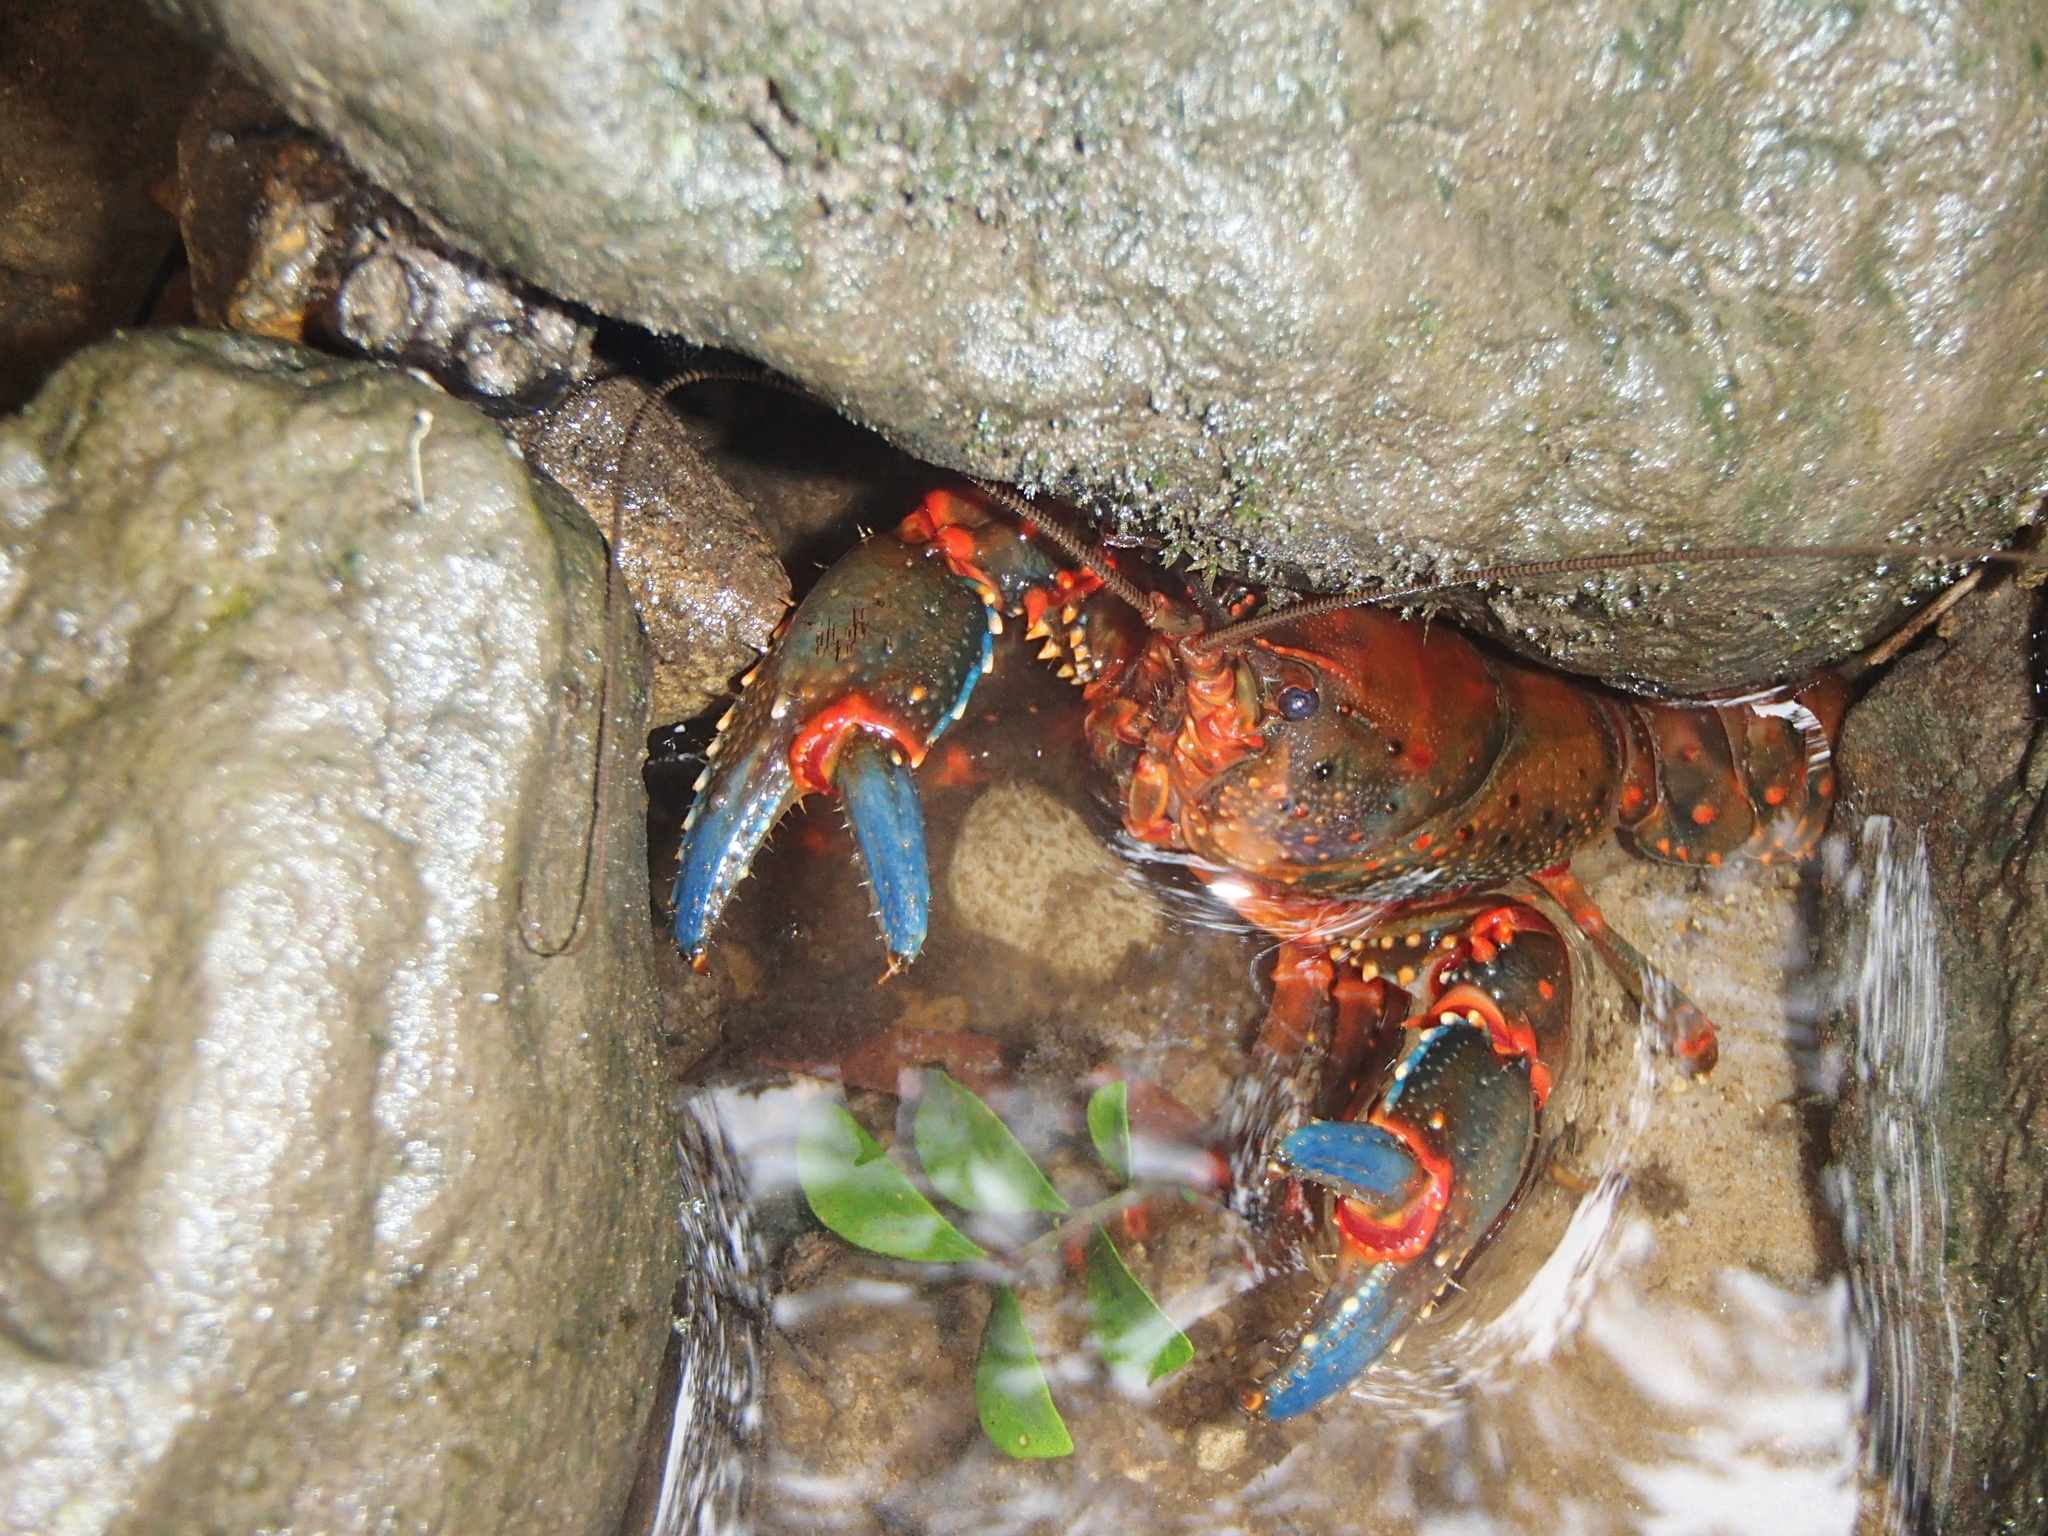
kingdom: Animalia
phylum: Arthropoda
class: Malacostraca
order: Decapoda
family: Parastacidae
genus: Euastacus
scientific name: Euastacus spinifer
